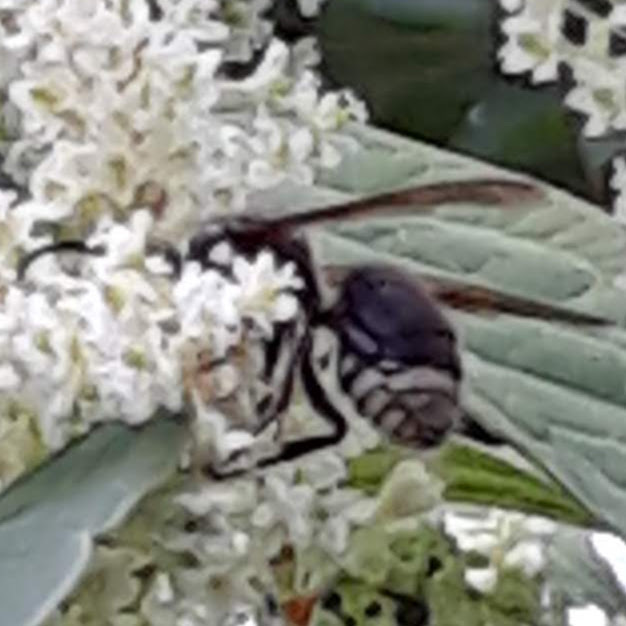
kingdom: Animalia
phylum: Arthropoda
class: Insecta
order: Hymenoptera
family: Vespidae
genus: Dolichovespula
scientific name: Dolichovespula maculata
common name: Bald-faced hornet
